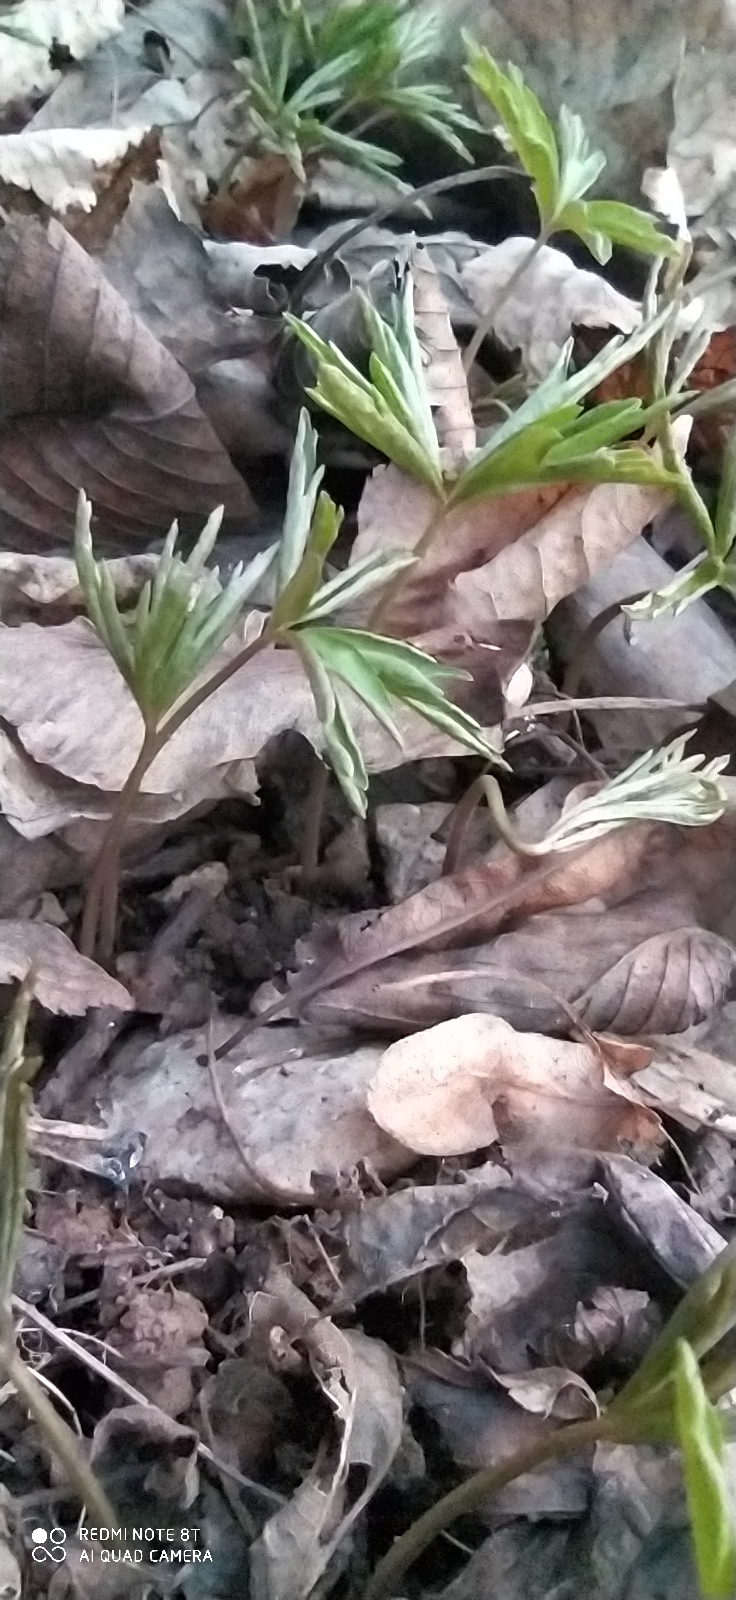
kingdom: Plantae
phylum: Tracheophyta
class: Magnoliopsida
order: Ranunculales
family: Ranunculaceae
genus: Anemone
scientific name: Anemone ranunculoides
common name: Yellow anemone
